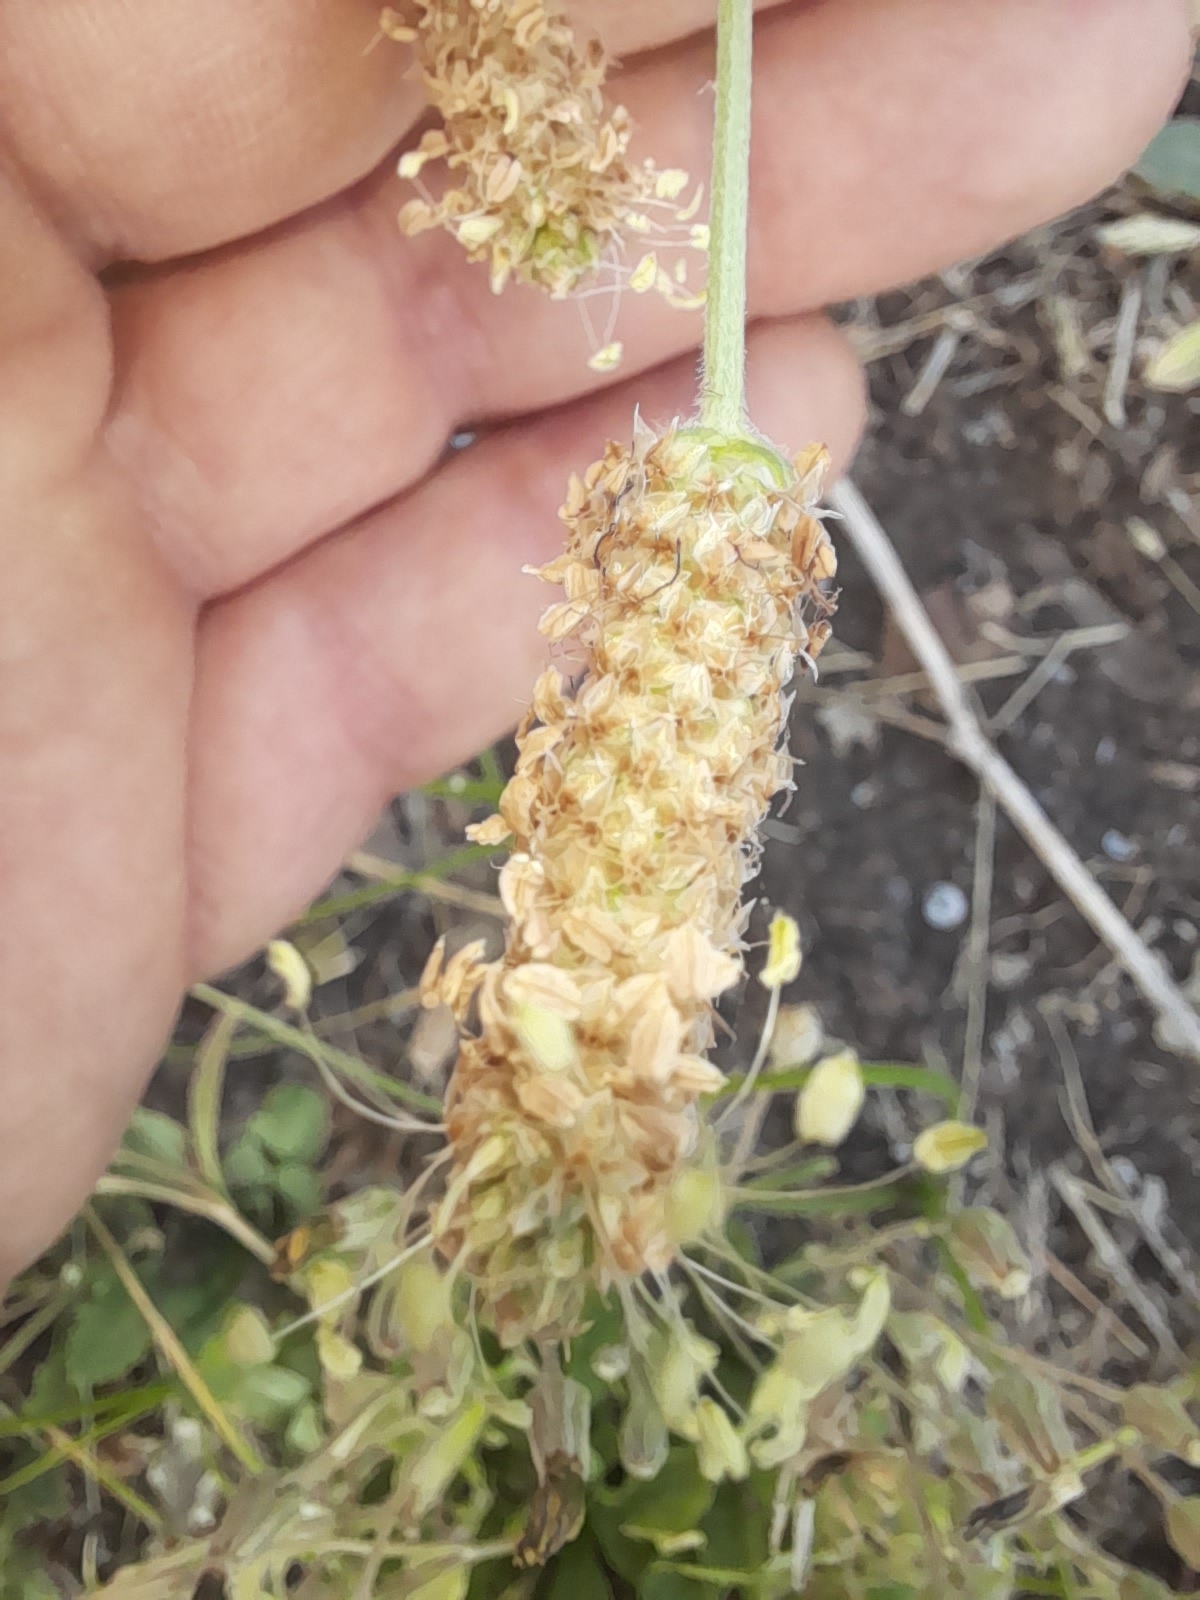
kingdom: Plantae
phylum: Tracheophyta
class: Magnoliopsida
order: Lamiales
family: Plantaginaceae
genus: Plantago
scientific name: Plantago lanceolata
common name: Ribwort plantain
